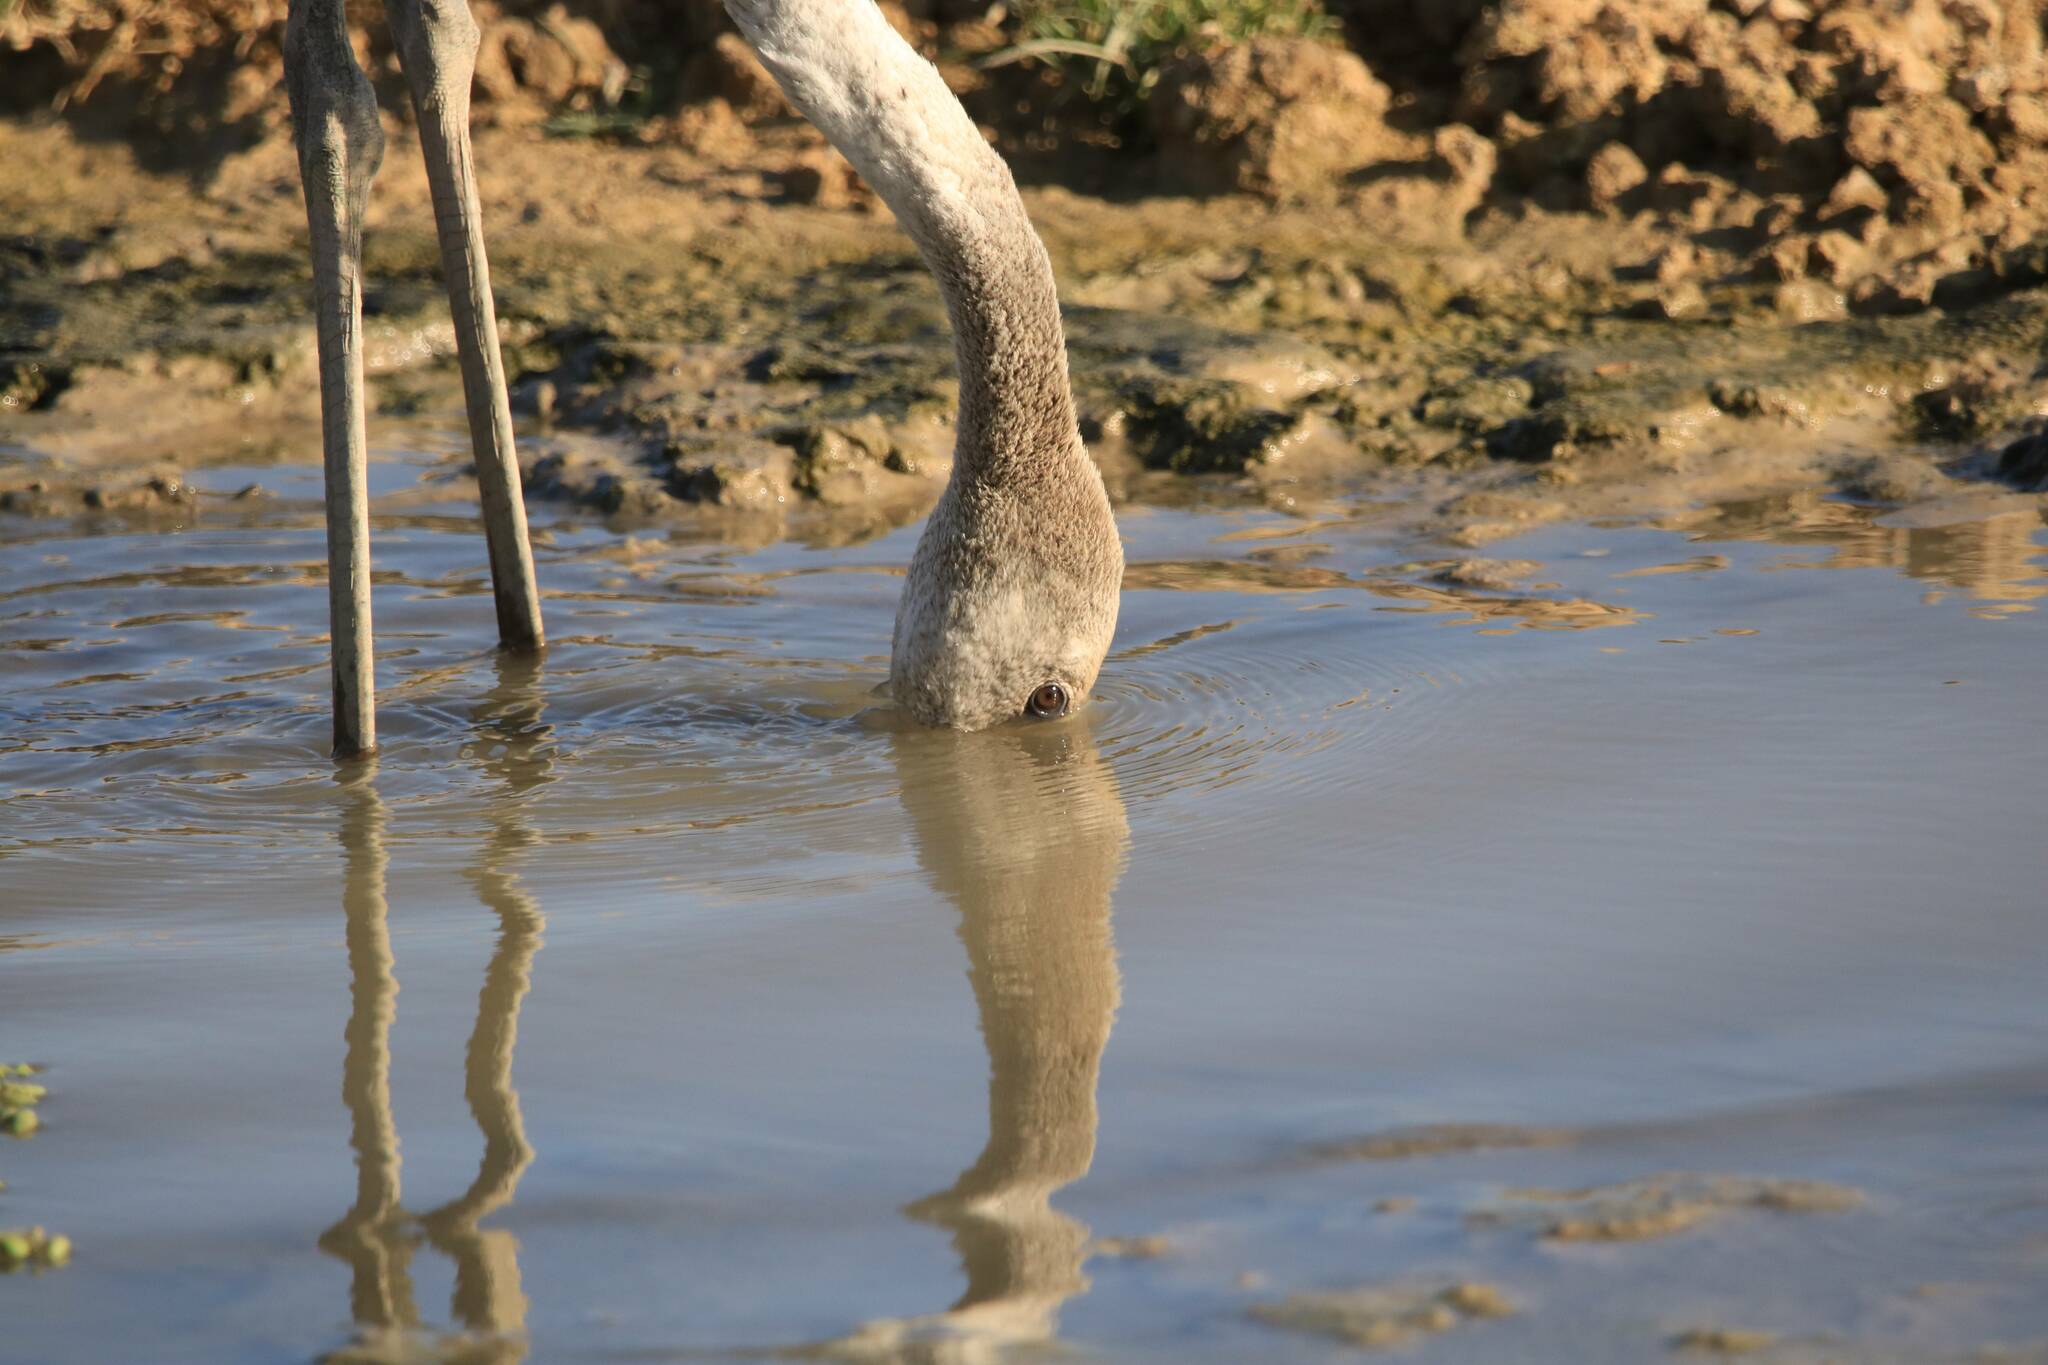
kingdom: Animalia
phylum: Chordata
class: Aves
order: Phoenicopteriformes
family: Phoenicopteridae
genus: Phoenicopterus
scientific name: Phoenicopterus roseus
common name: Greater flamingo
